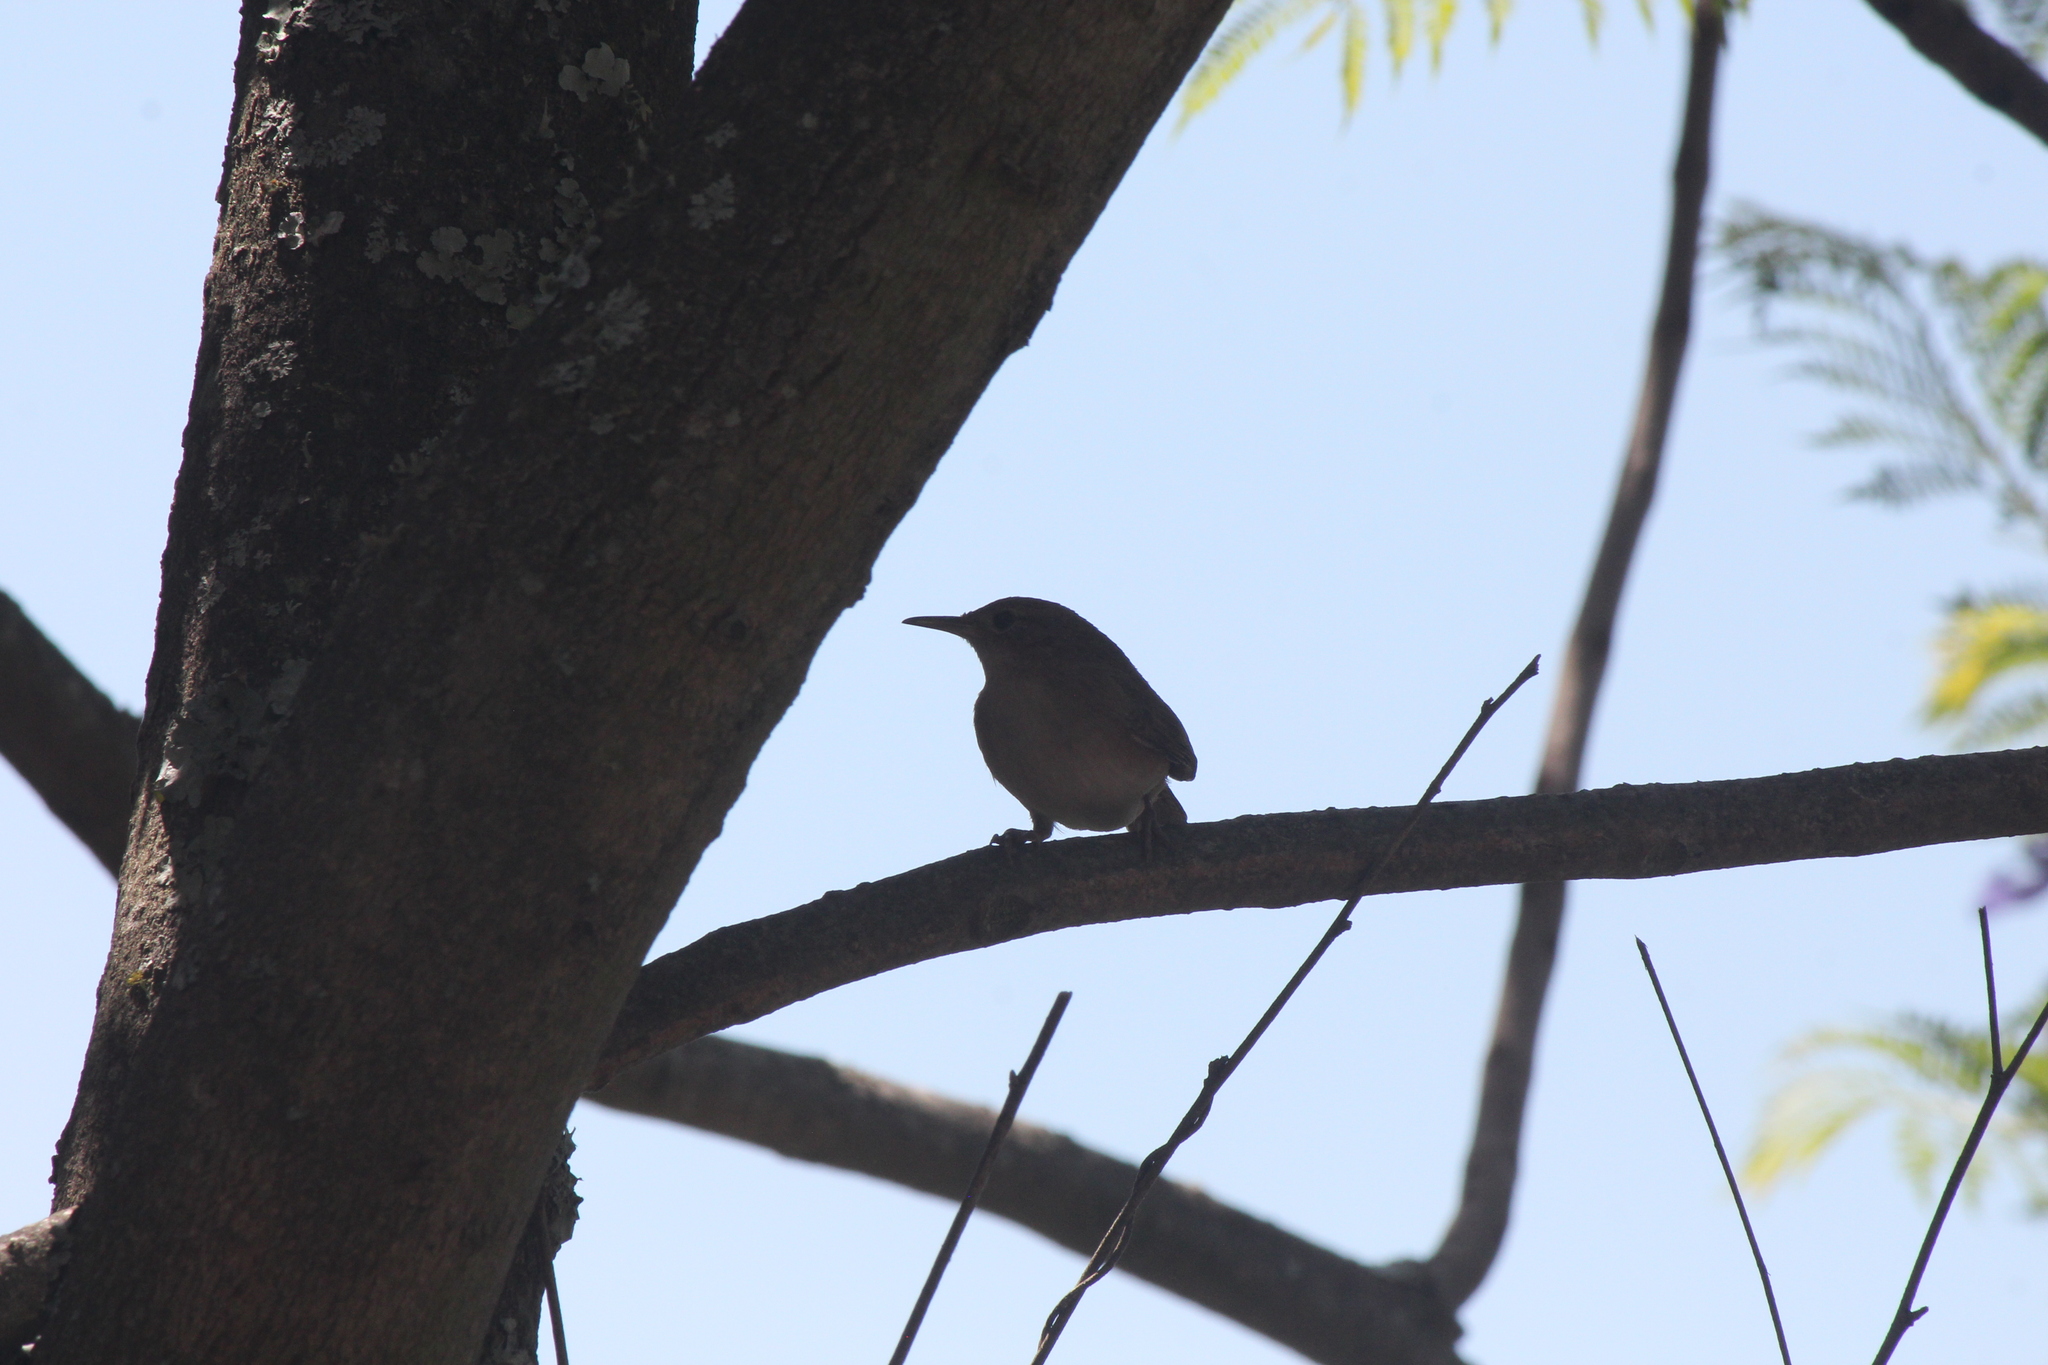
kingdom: Animalia
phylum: Chordata
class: Aves
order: Passeriformes
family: Troglodytidae
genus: Troglodytes
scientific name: Troglodytes aedon
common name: House wren
